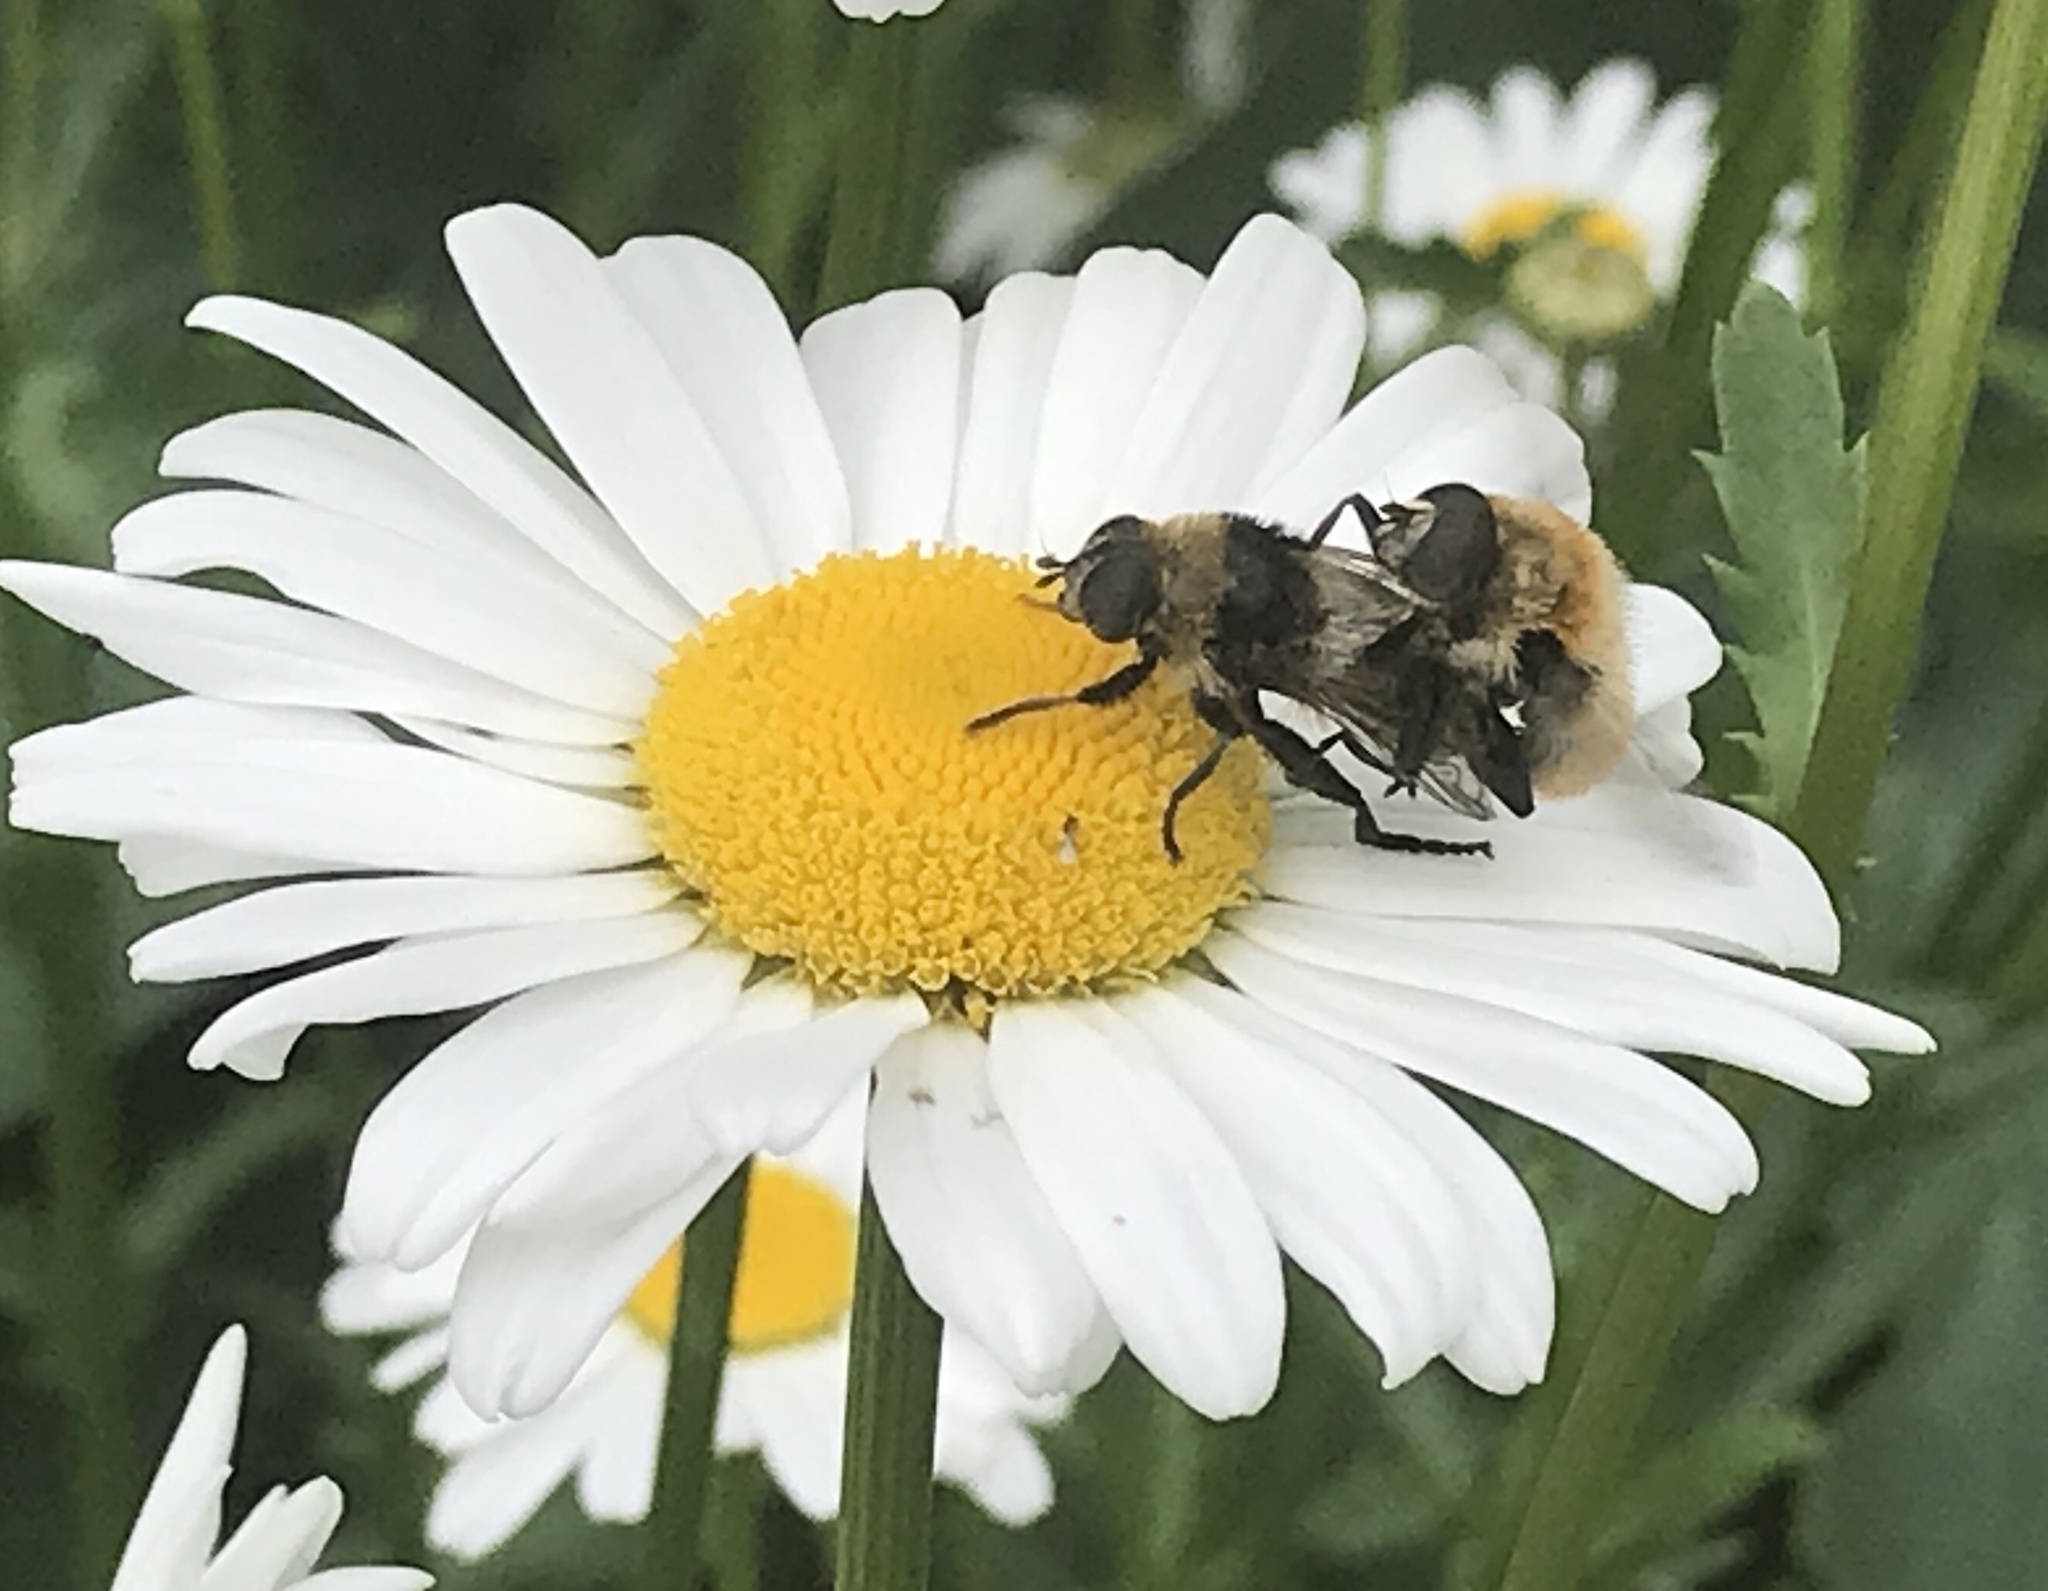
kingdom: Animalia
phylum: Arthropoda
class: Insecta
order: Diptera
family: Syrphidae
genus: Merodon
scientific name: Merodon equestris
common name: Greater bulb-fly
